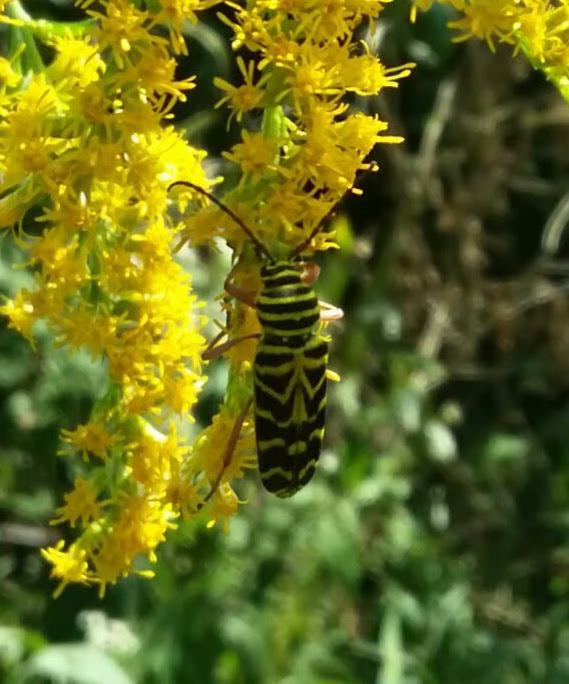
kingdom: Animalia
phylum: Arthropoda
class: Insecta
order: Coleoptera
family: Cerambycidae
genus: Megacyllene
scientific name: Megacyllene robiniae
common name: Locust borer
